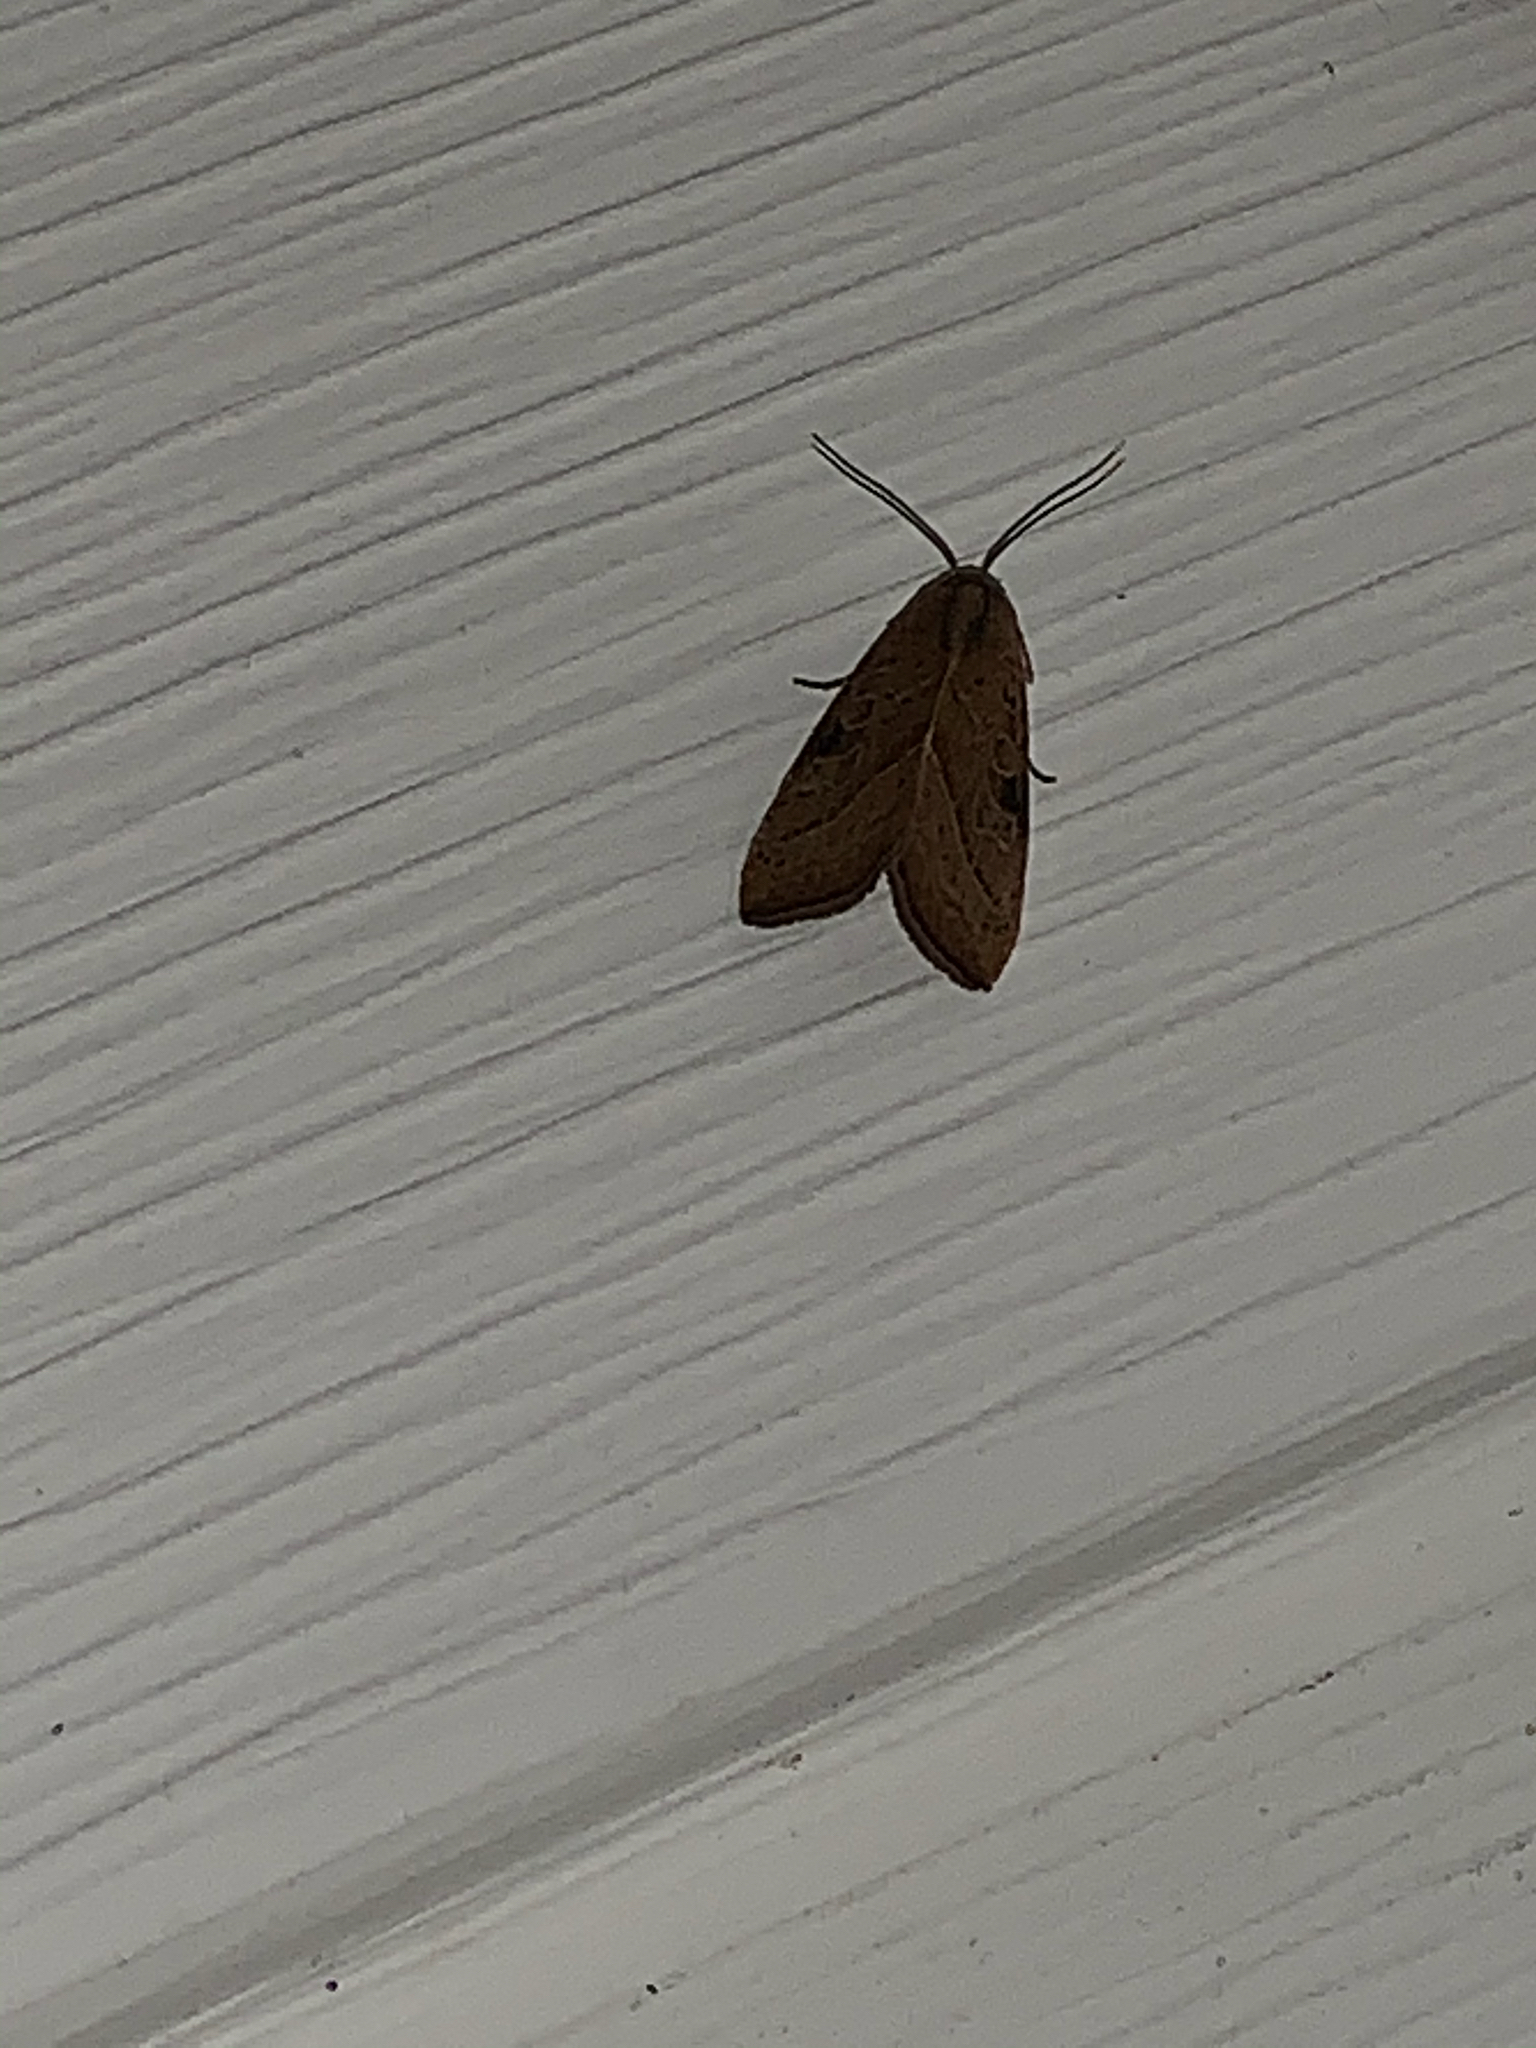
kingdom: Animalia
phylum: Arthropoda
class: Insecta
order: Lepidoptera
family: Noctuidae
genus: Galgula
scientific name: Galgula partita
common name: Wedgeling
